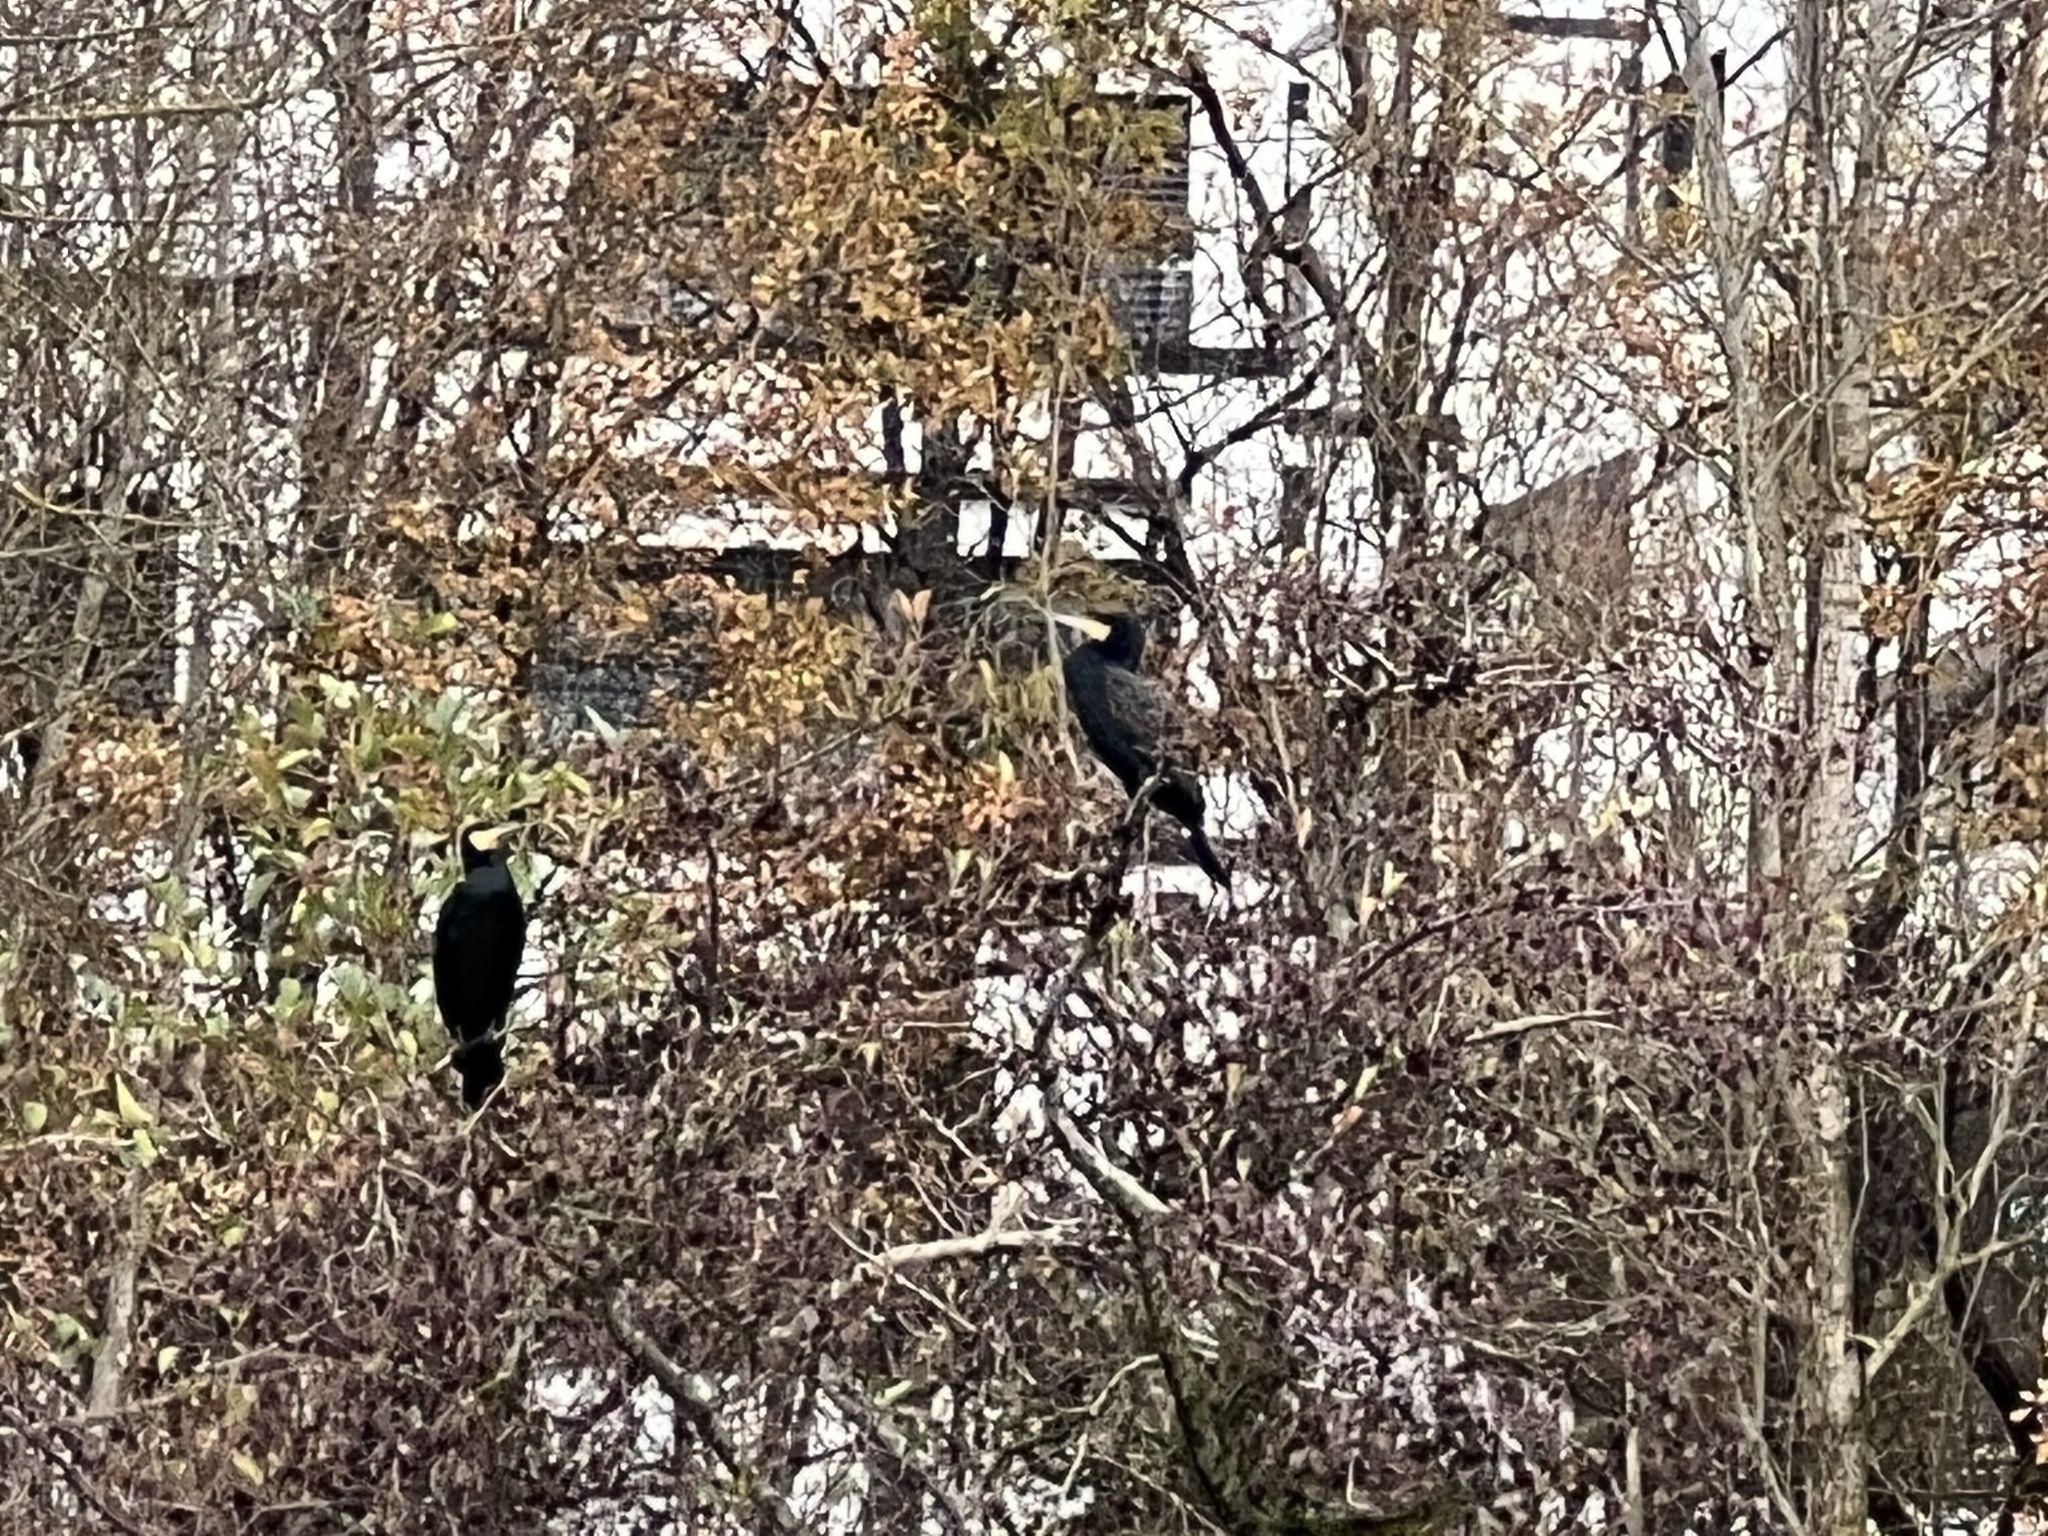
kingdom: Animalia
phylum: Chordata
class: Aves
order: Suliformes
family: Phalacrocoracidae
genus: Phalacrocorax
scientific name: Phalacrocorax carbo
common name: Great cormorant
